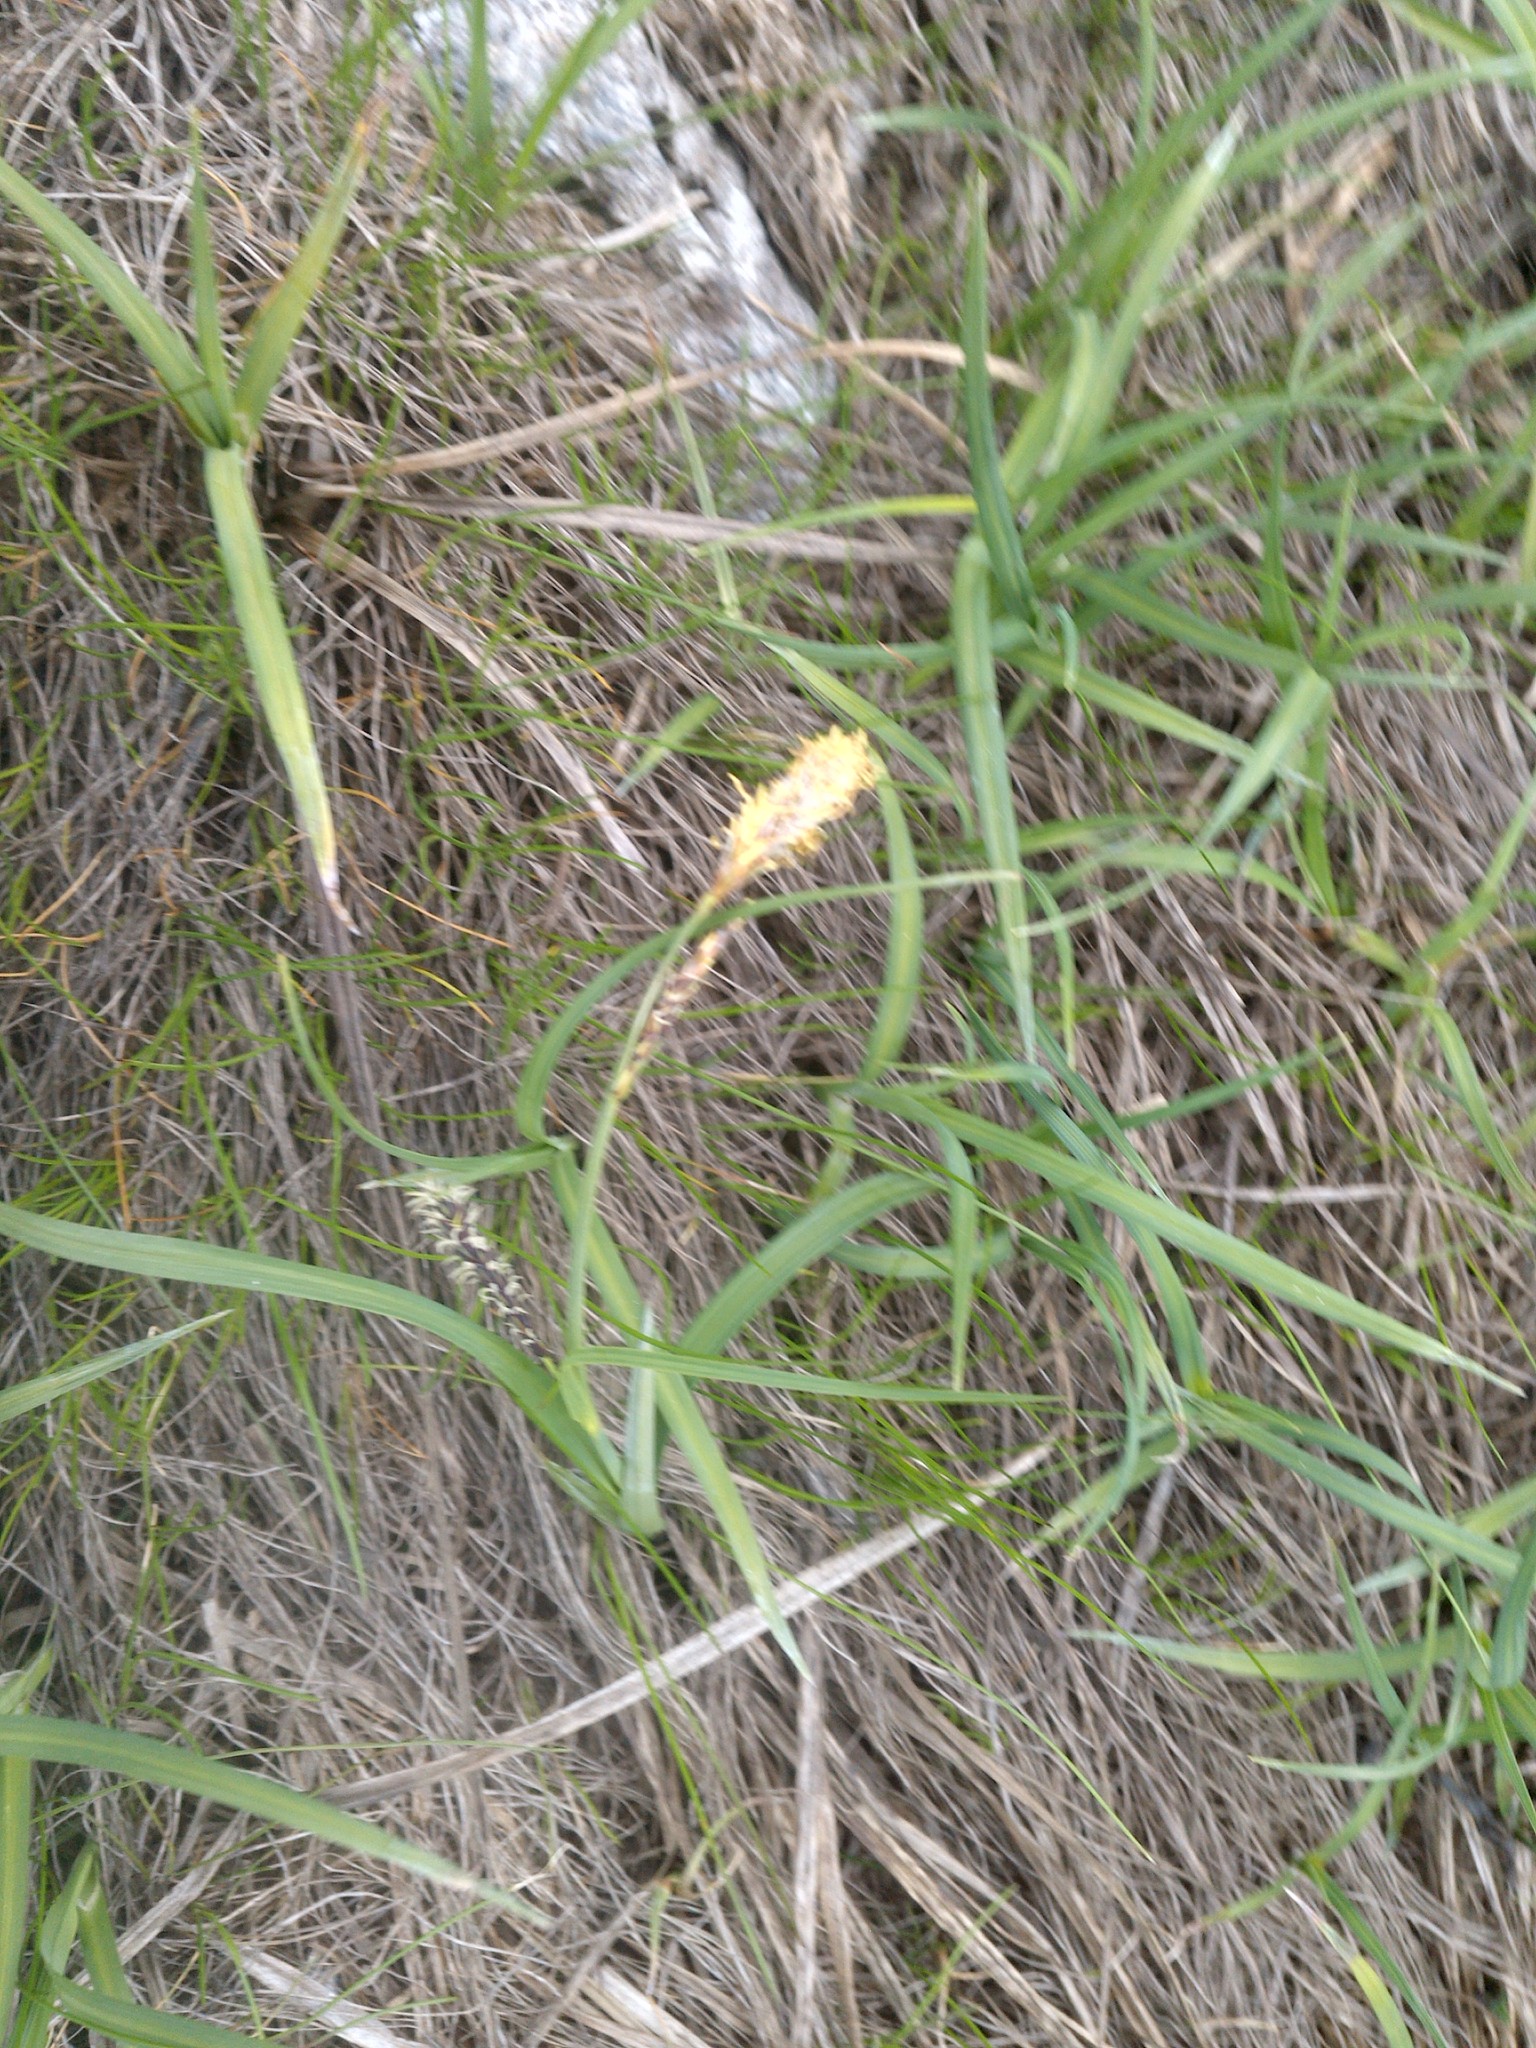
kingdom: Plantae
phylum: Tracheophyta
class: Liliopsida
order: Poales
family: Cyperaceae
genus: Carex
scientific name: Carex bigelowii
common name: Stiff sedge
